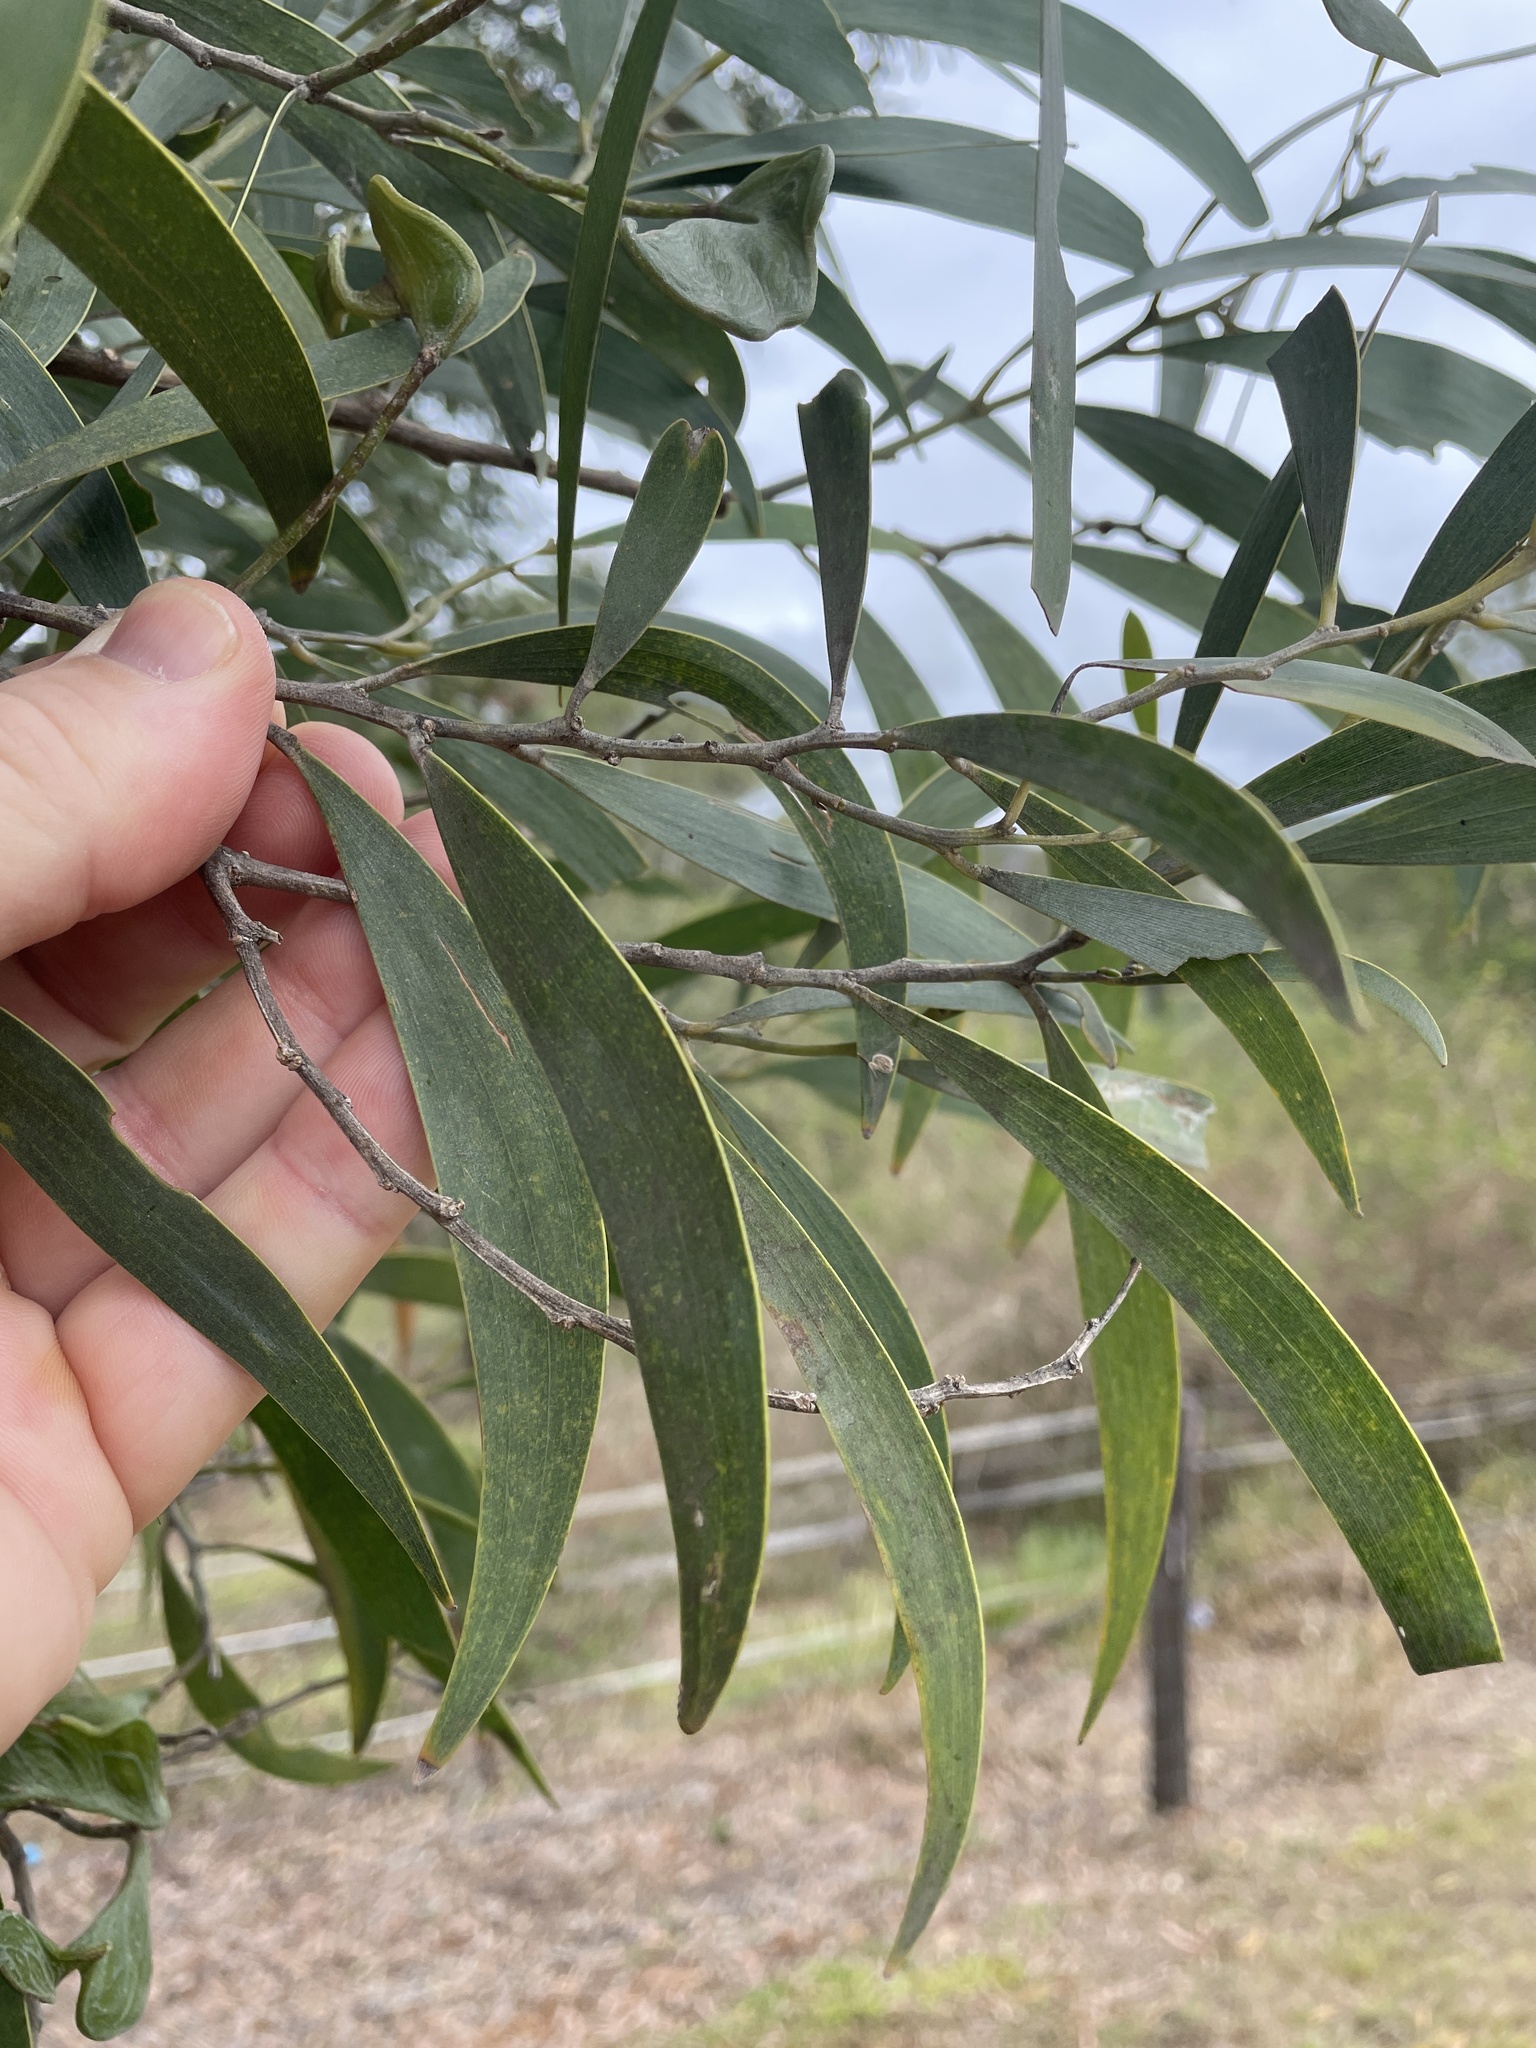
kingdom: Plantae
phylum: Tracheophyta
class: Magnoliopsida
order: Fabales
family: Fabaceae
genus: Acacia
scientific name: Acacia disparrima
